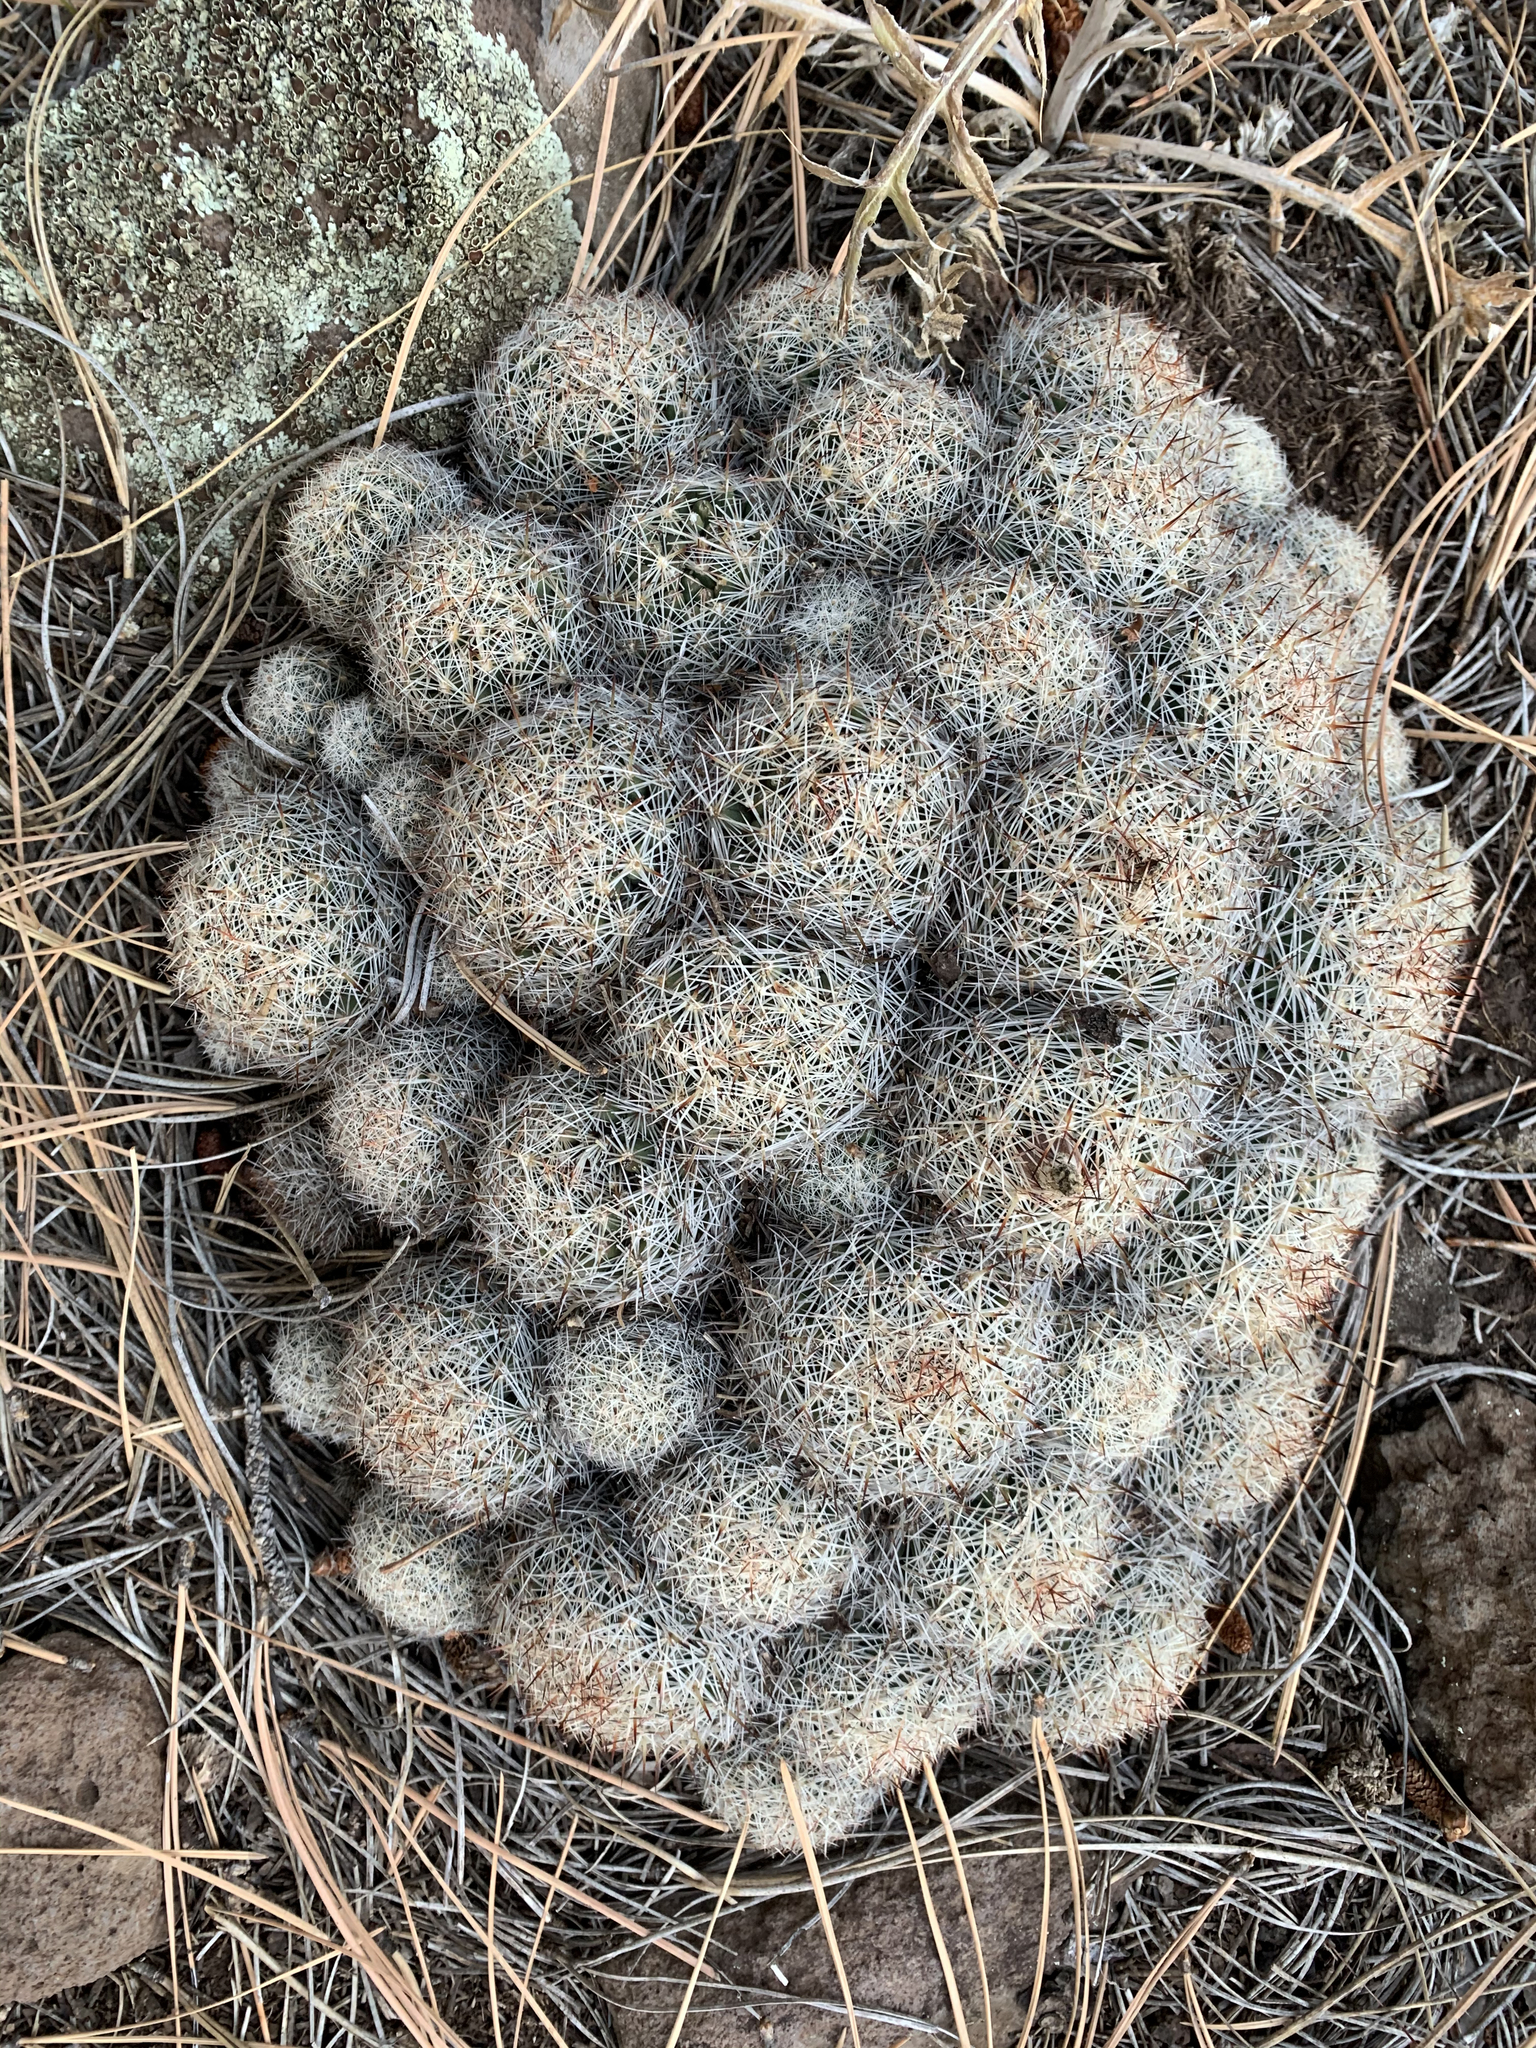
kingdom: Plantae
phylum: Tracheophyta
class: Magnoliopsida
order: Caryophyllales
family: Cactaceae
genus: Pelecyphora
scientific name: Pelecyphora vivipara
